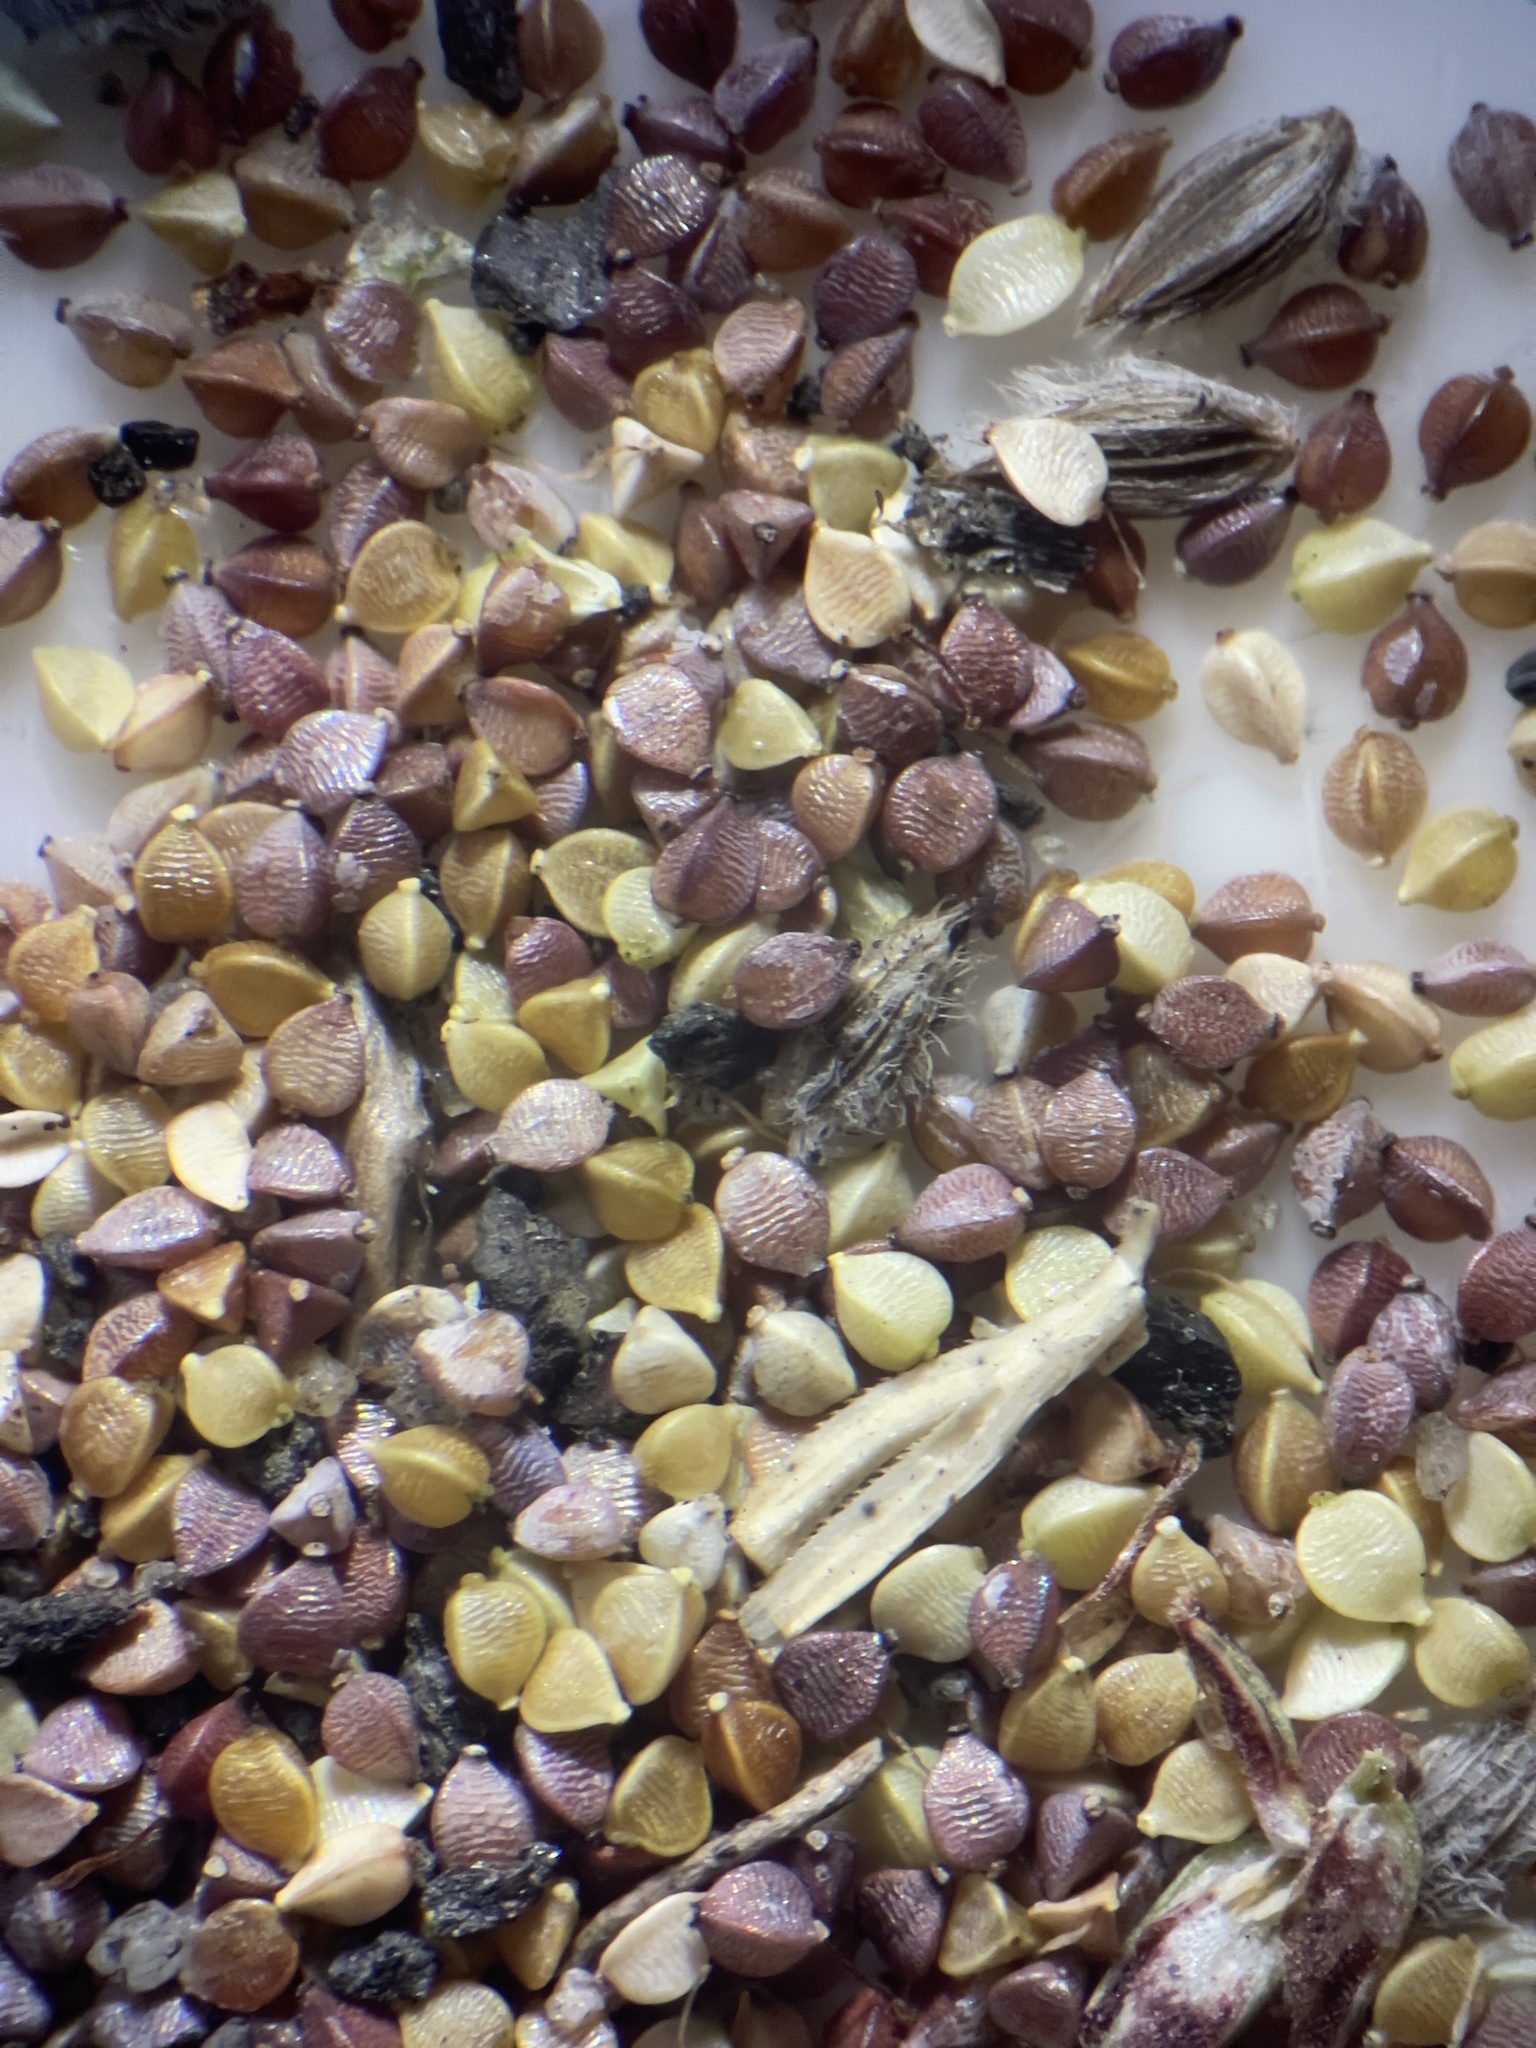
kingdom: Plantae
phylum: Tracheophyta
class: Liliopsida
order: Poales
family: Cyperaceae
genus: Bulbostylis
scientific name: Bulbostylis capillaris
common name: Densetuft hairsedge
